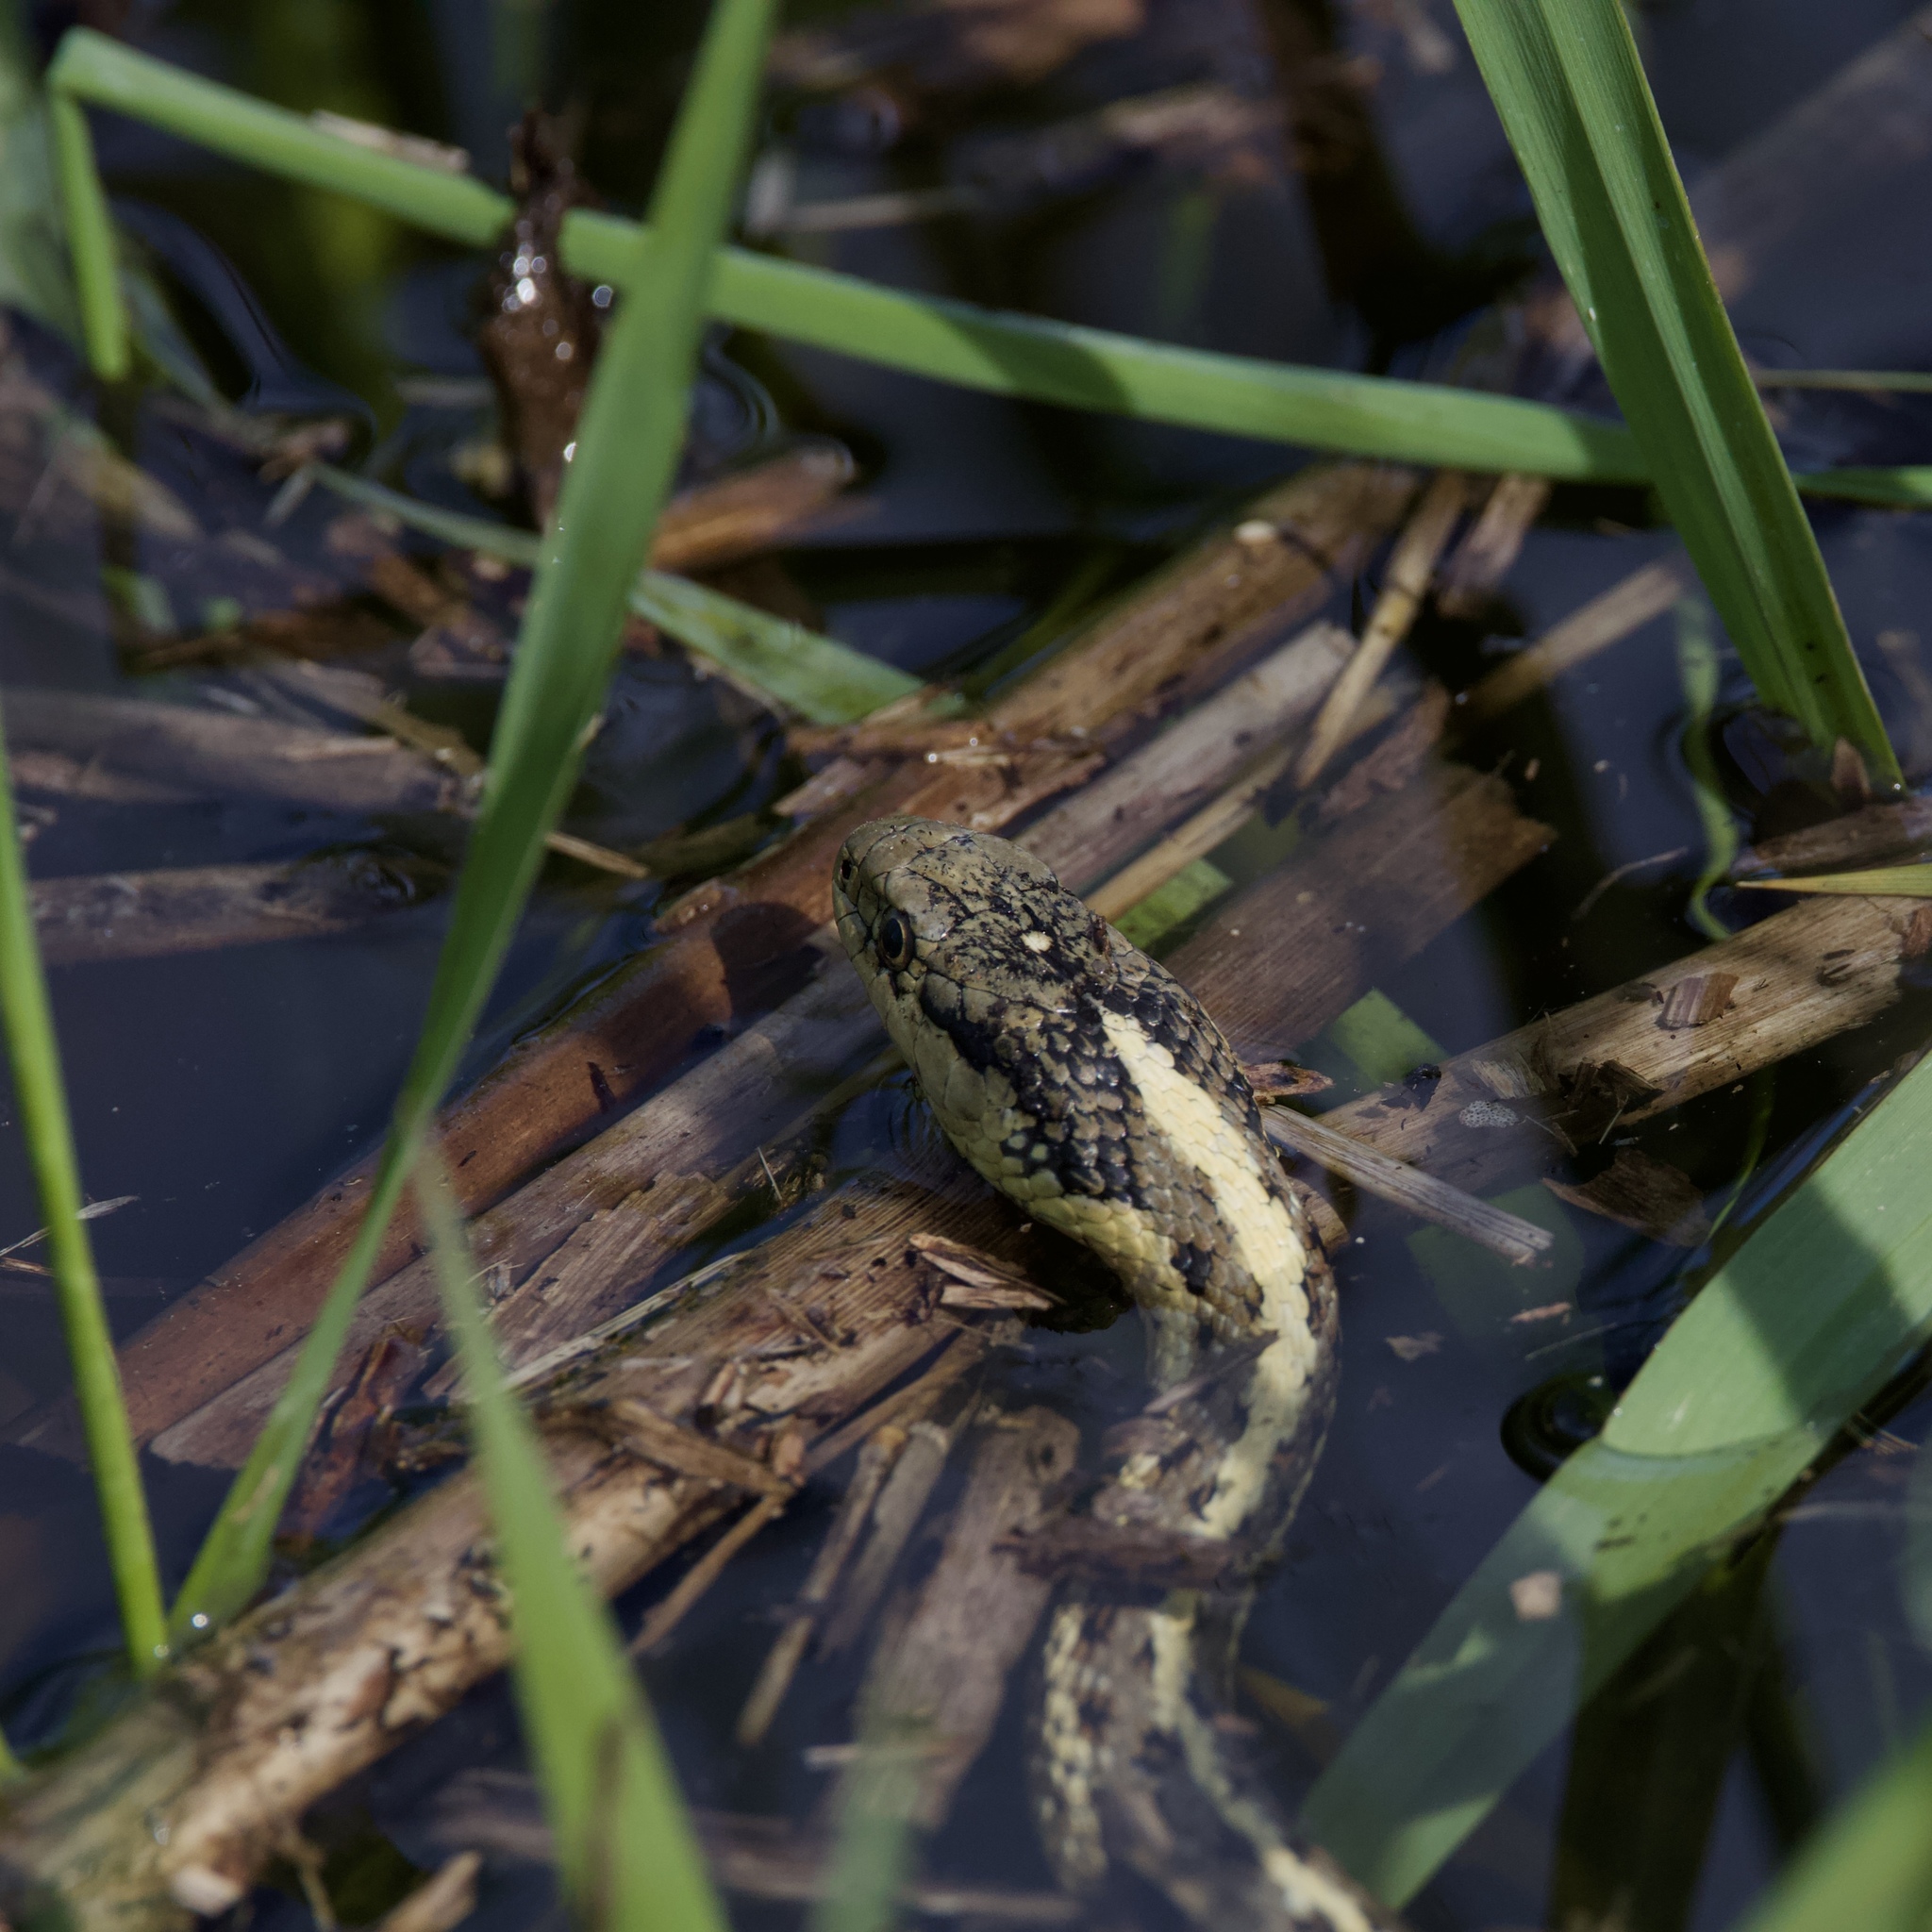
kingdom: Animalia
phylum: Chordata
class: Squamata
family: Colubridae
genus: Thamnophis
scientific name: Thamnophis elegans
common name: Western terrestrial garter snake
